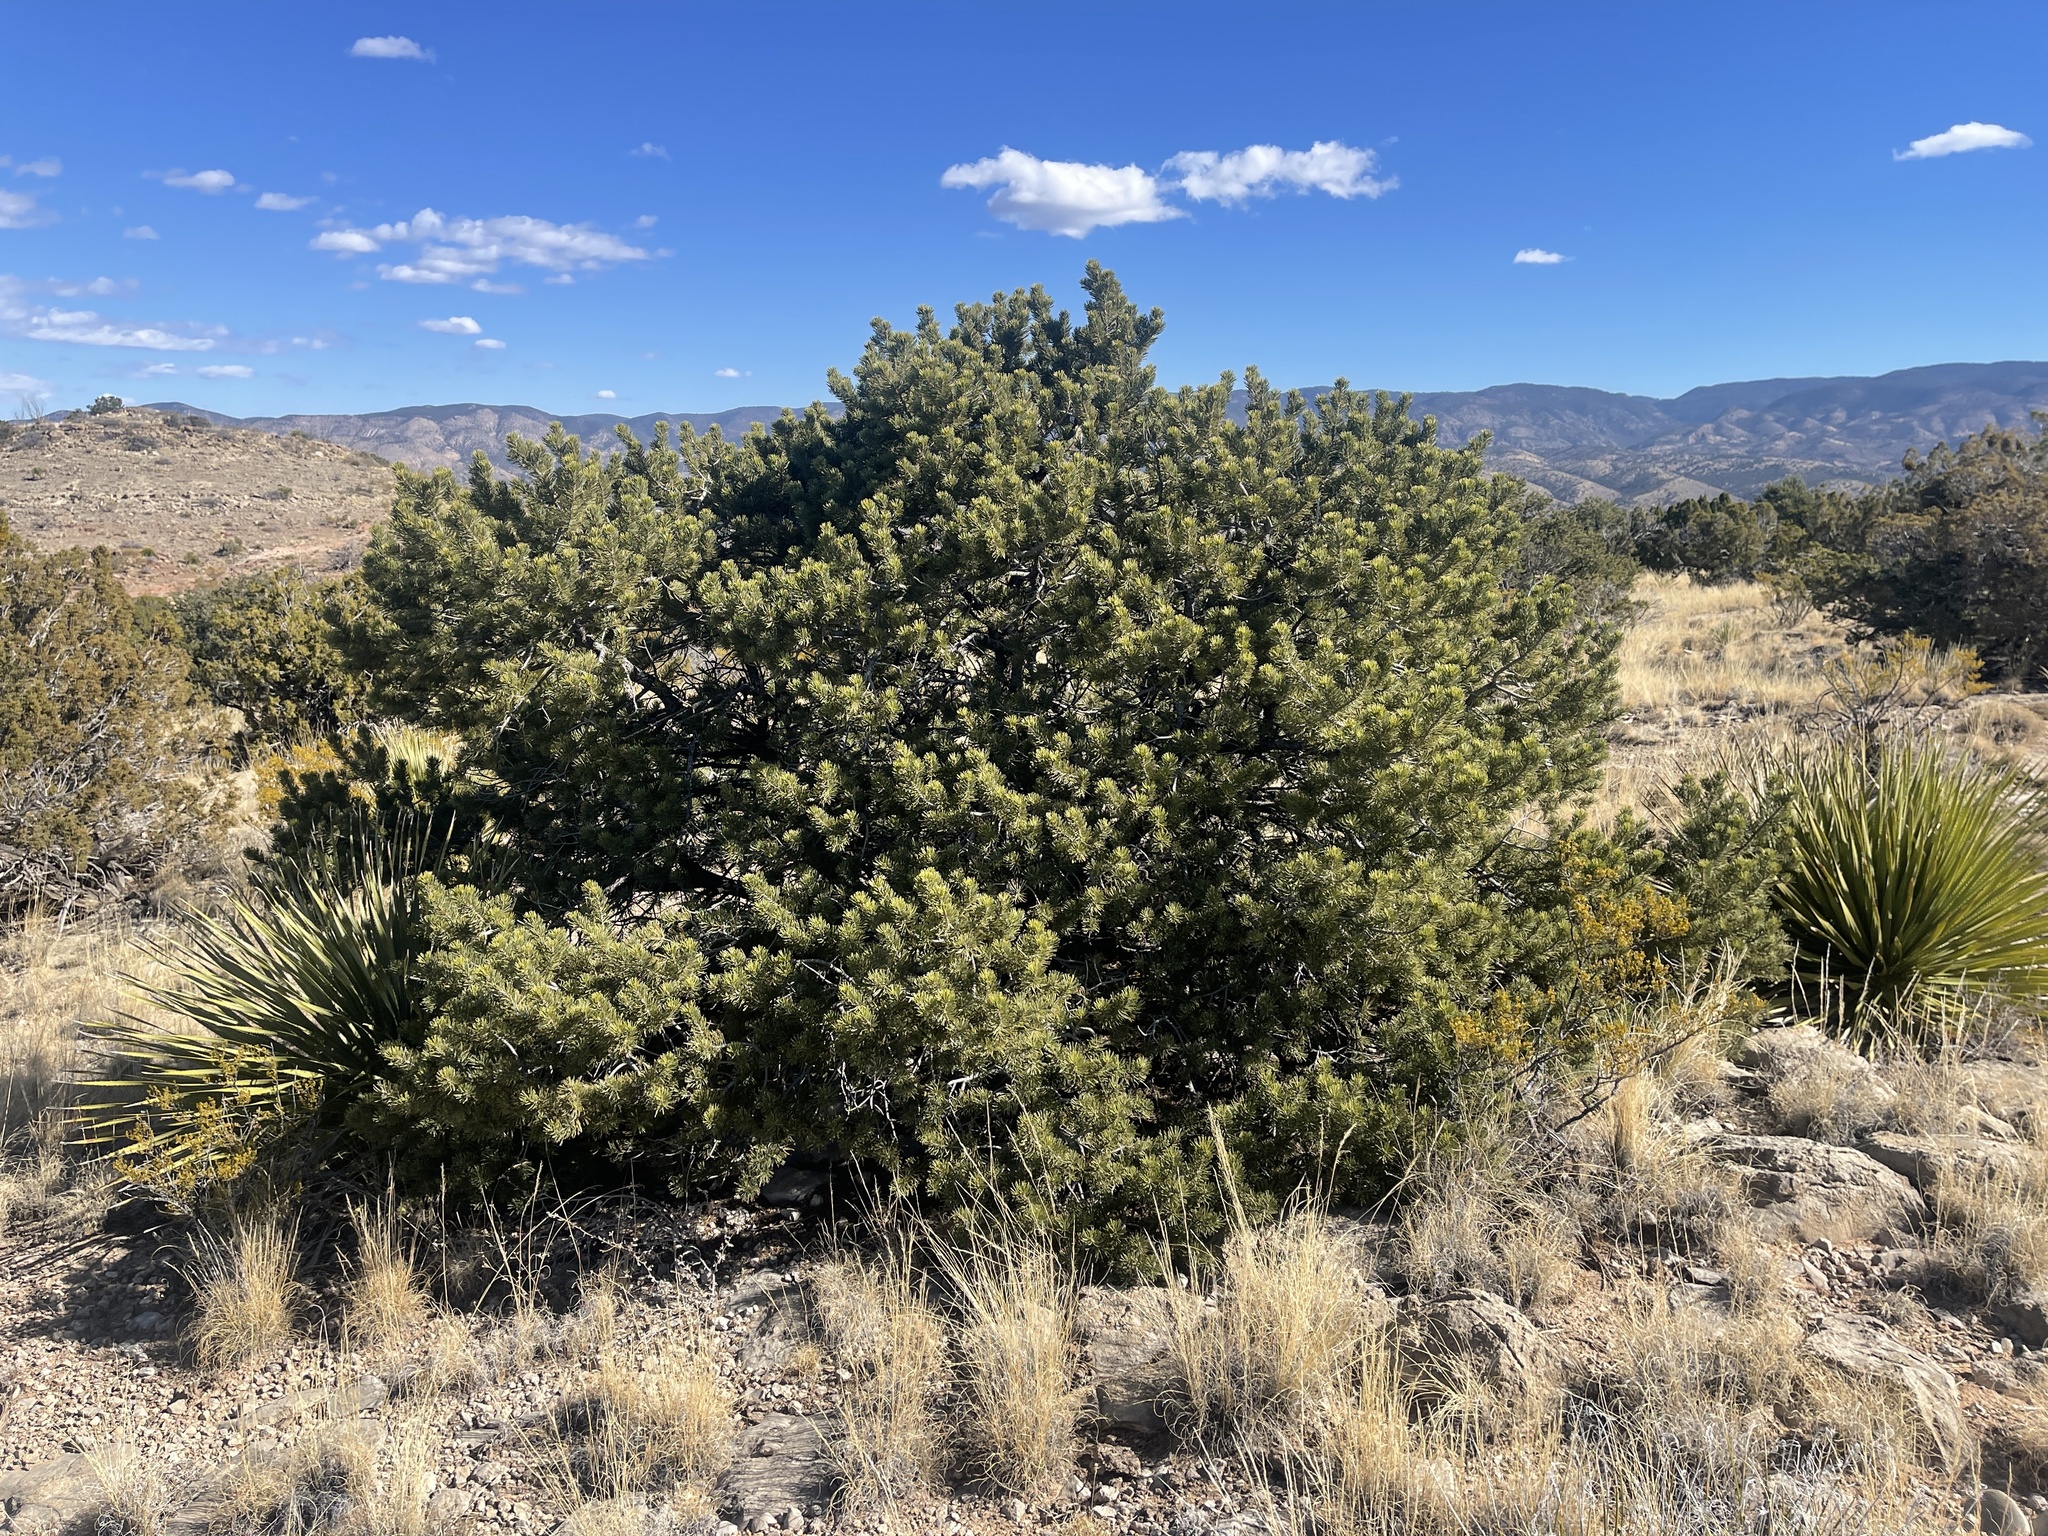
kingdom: Plantae
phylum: Tracheophyta
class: Pinopsida
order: Pinales
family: Pinaceae
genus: Pinus
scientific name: Pinus edulis
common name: Colorado pinyon
